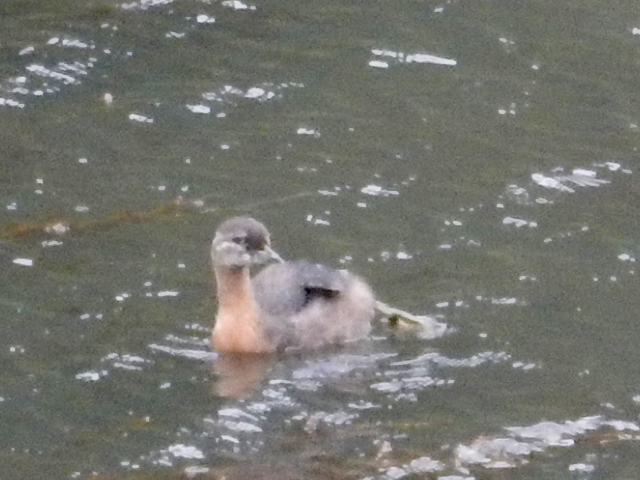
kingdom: Animalia
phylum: Chordata
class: Aves
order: Podicipediformes
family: Podicipedidae
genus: Poliocephalus
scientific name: Poliocephalus rufopectus
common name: New zealand grebe
